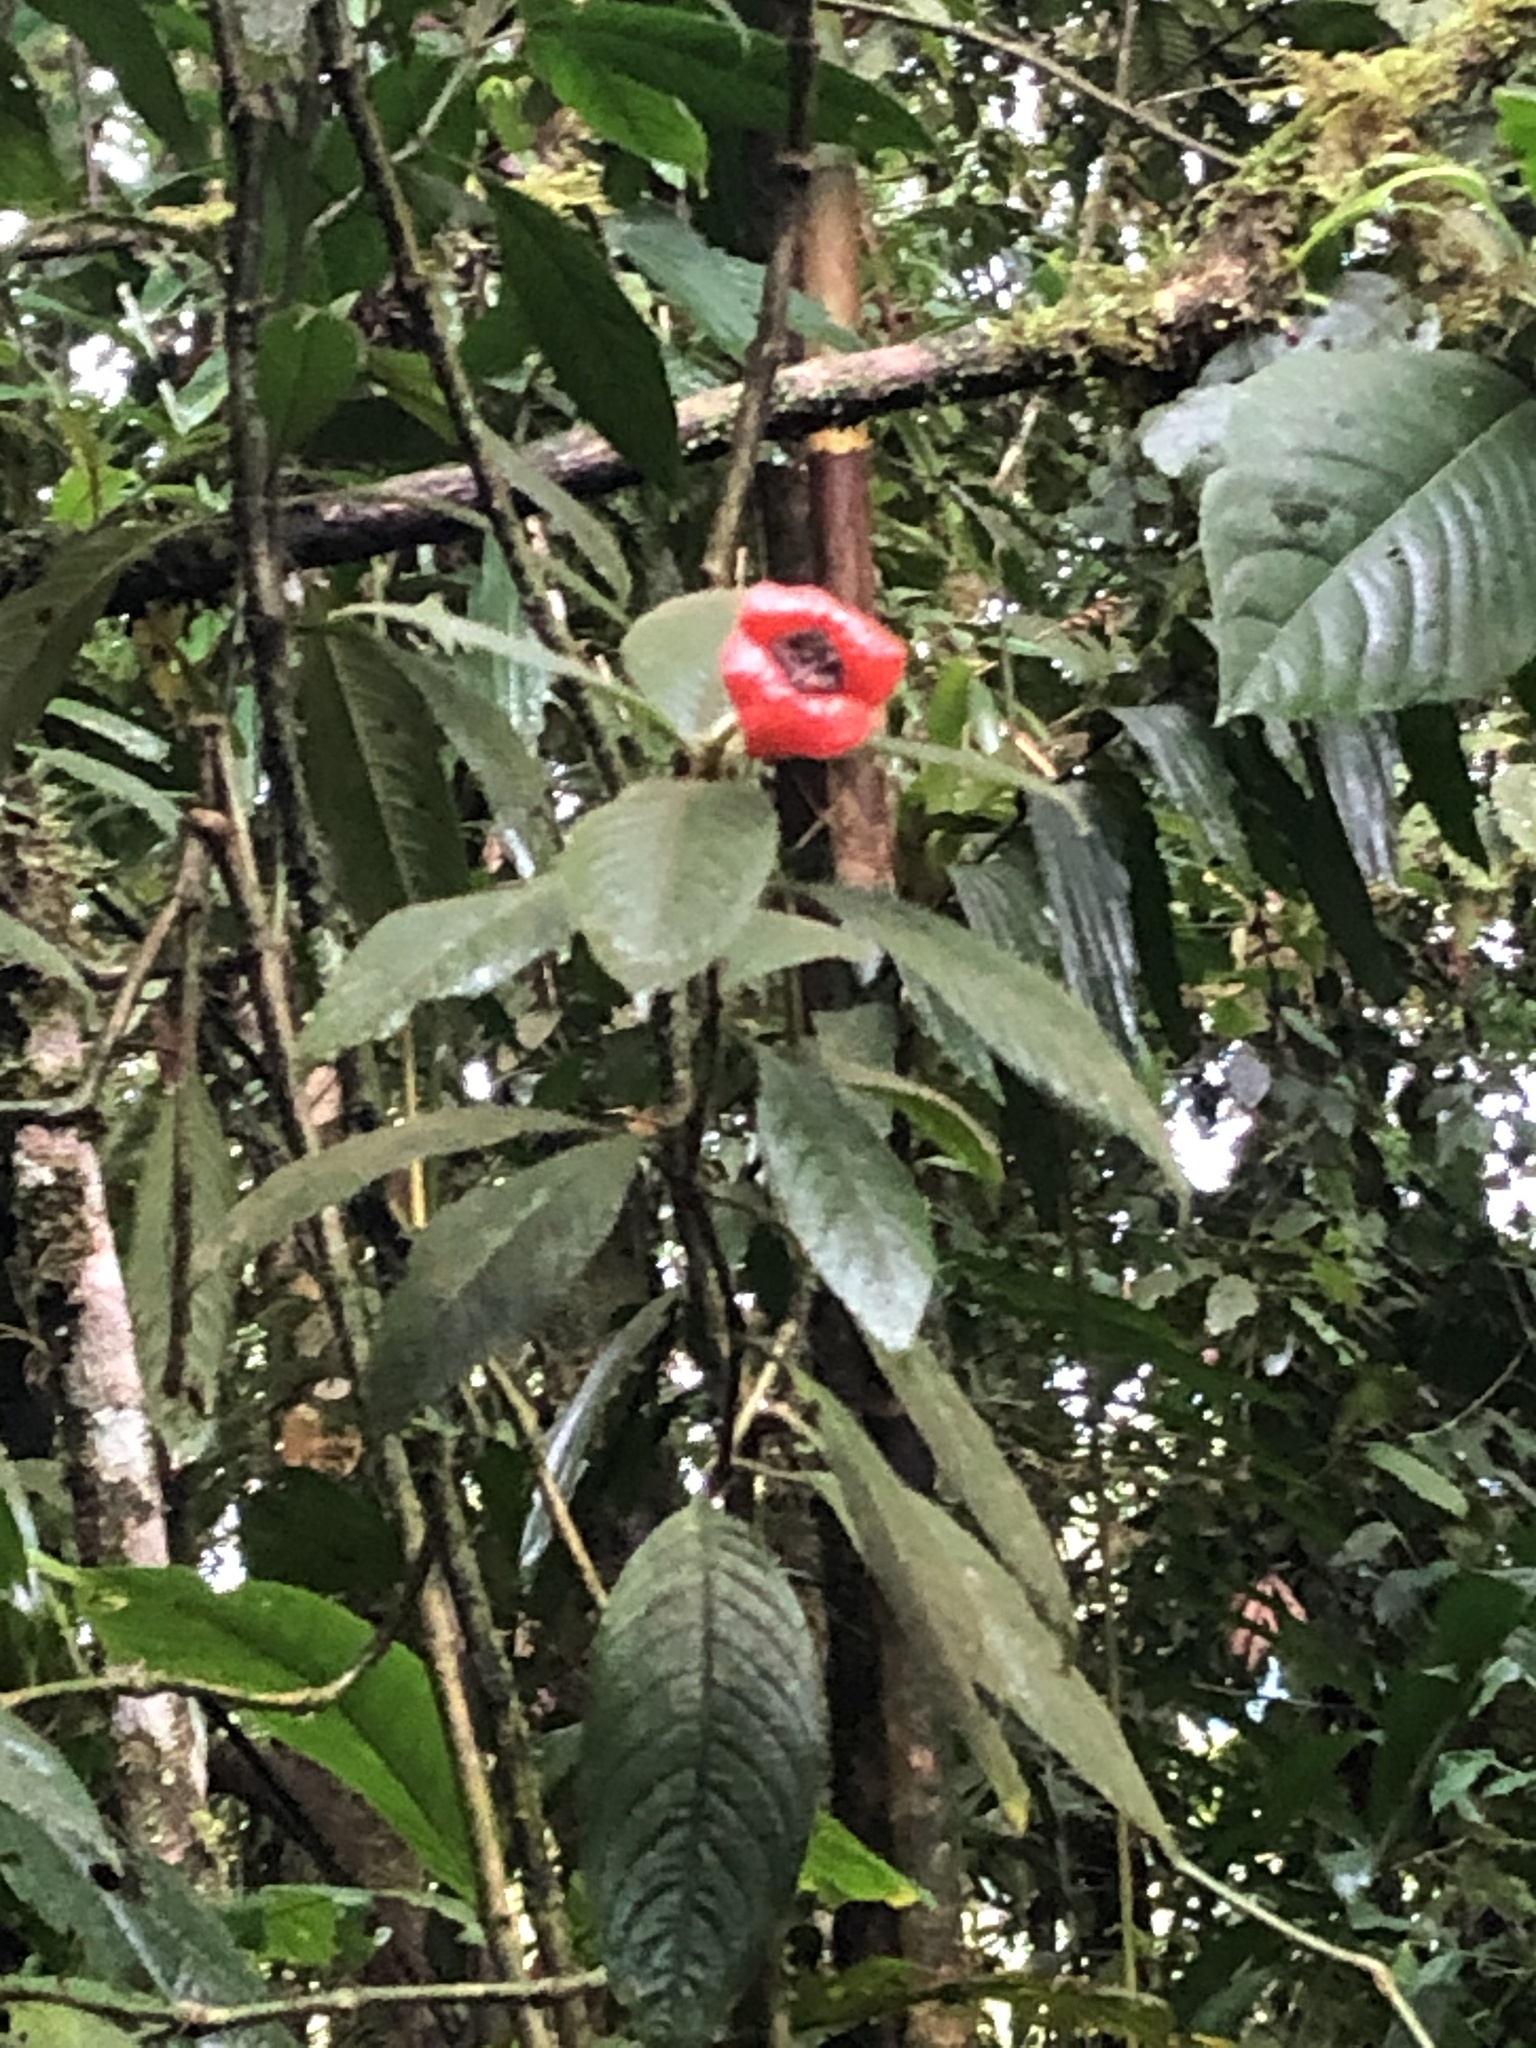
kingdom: Plantae
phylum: Tracheophyta
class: Magnoliopsida
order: Gentianales
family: Rubiaceae
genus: Palicourea
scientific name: Palicourea tomentosa
